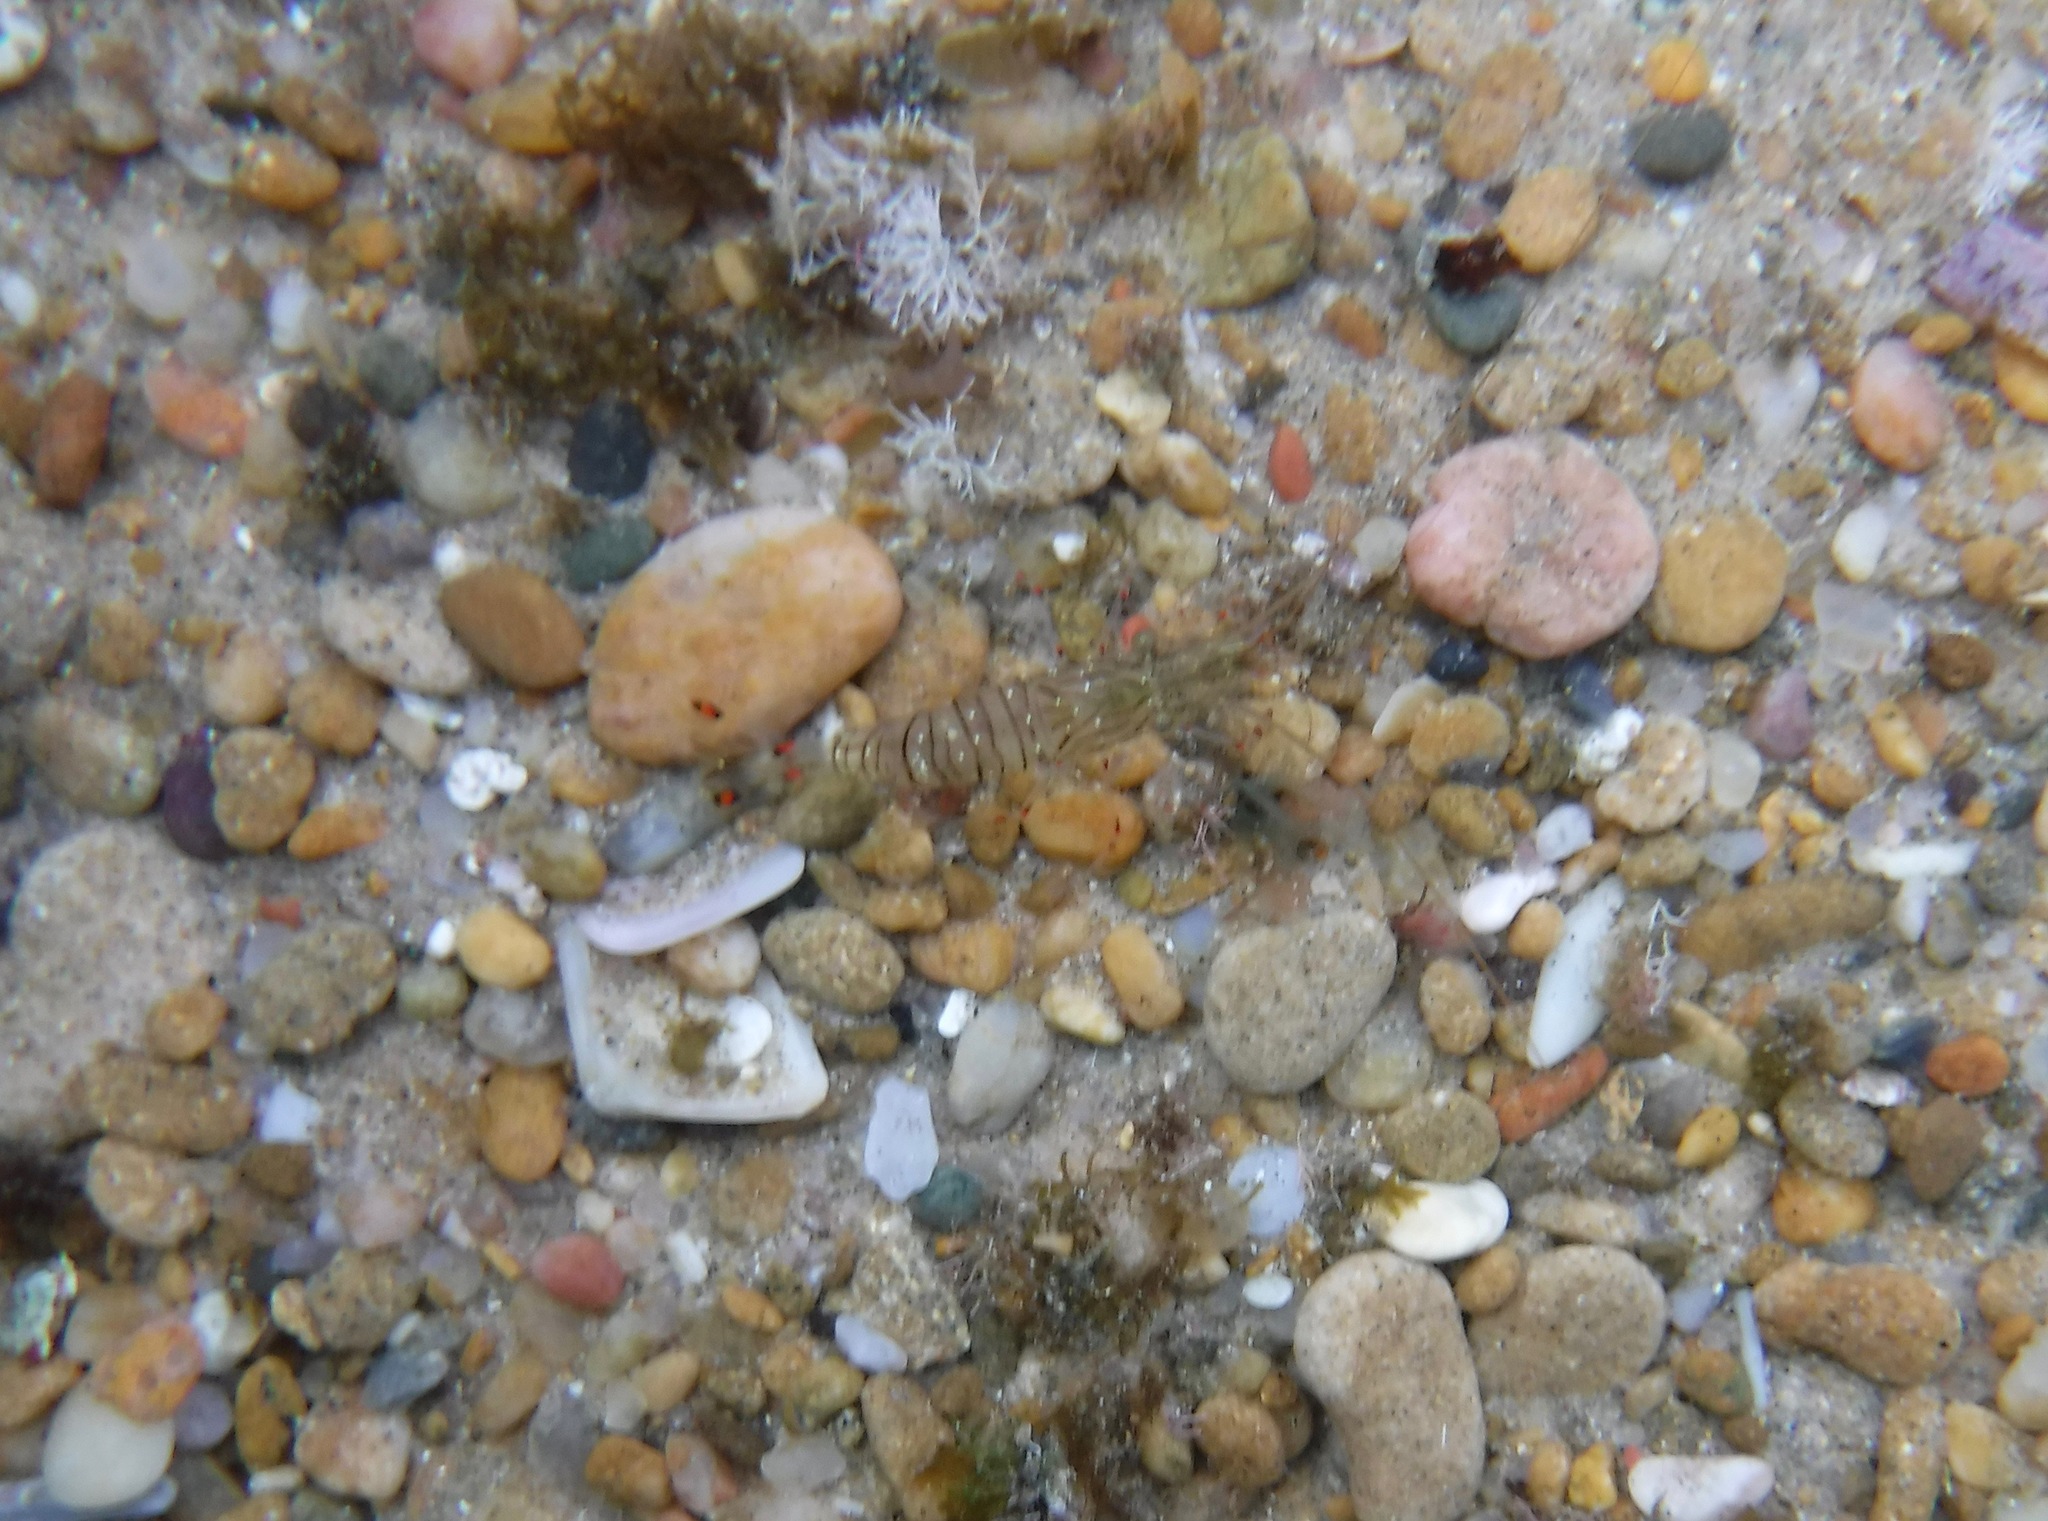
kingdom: Animalia
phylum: Arthropoda
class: Malacostraca
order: Decapoda
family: Palaemonidae
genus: Palaemon
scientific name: Palaemon peringueyi
